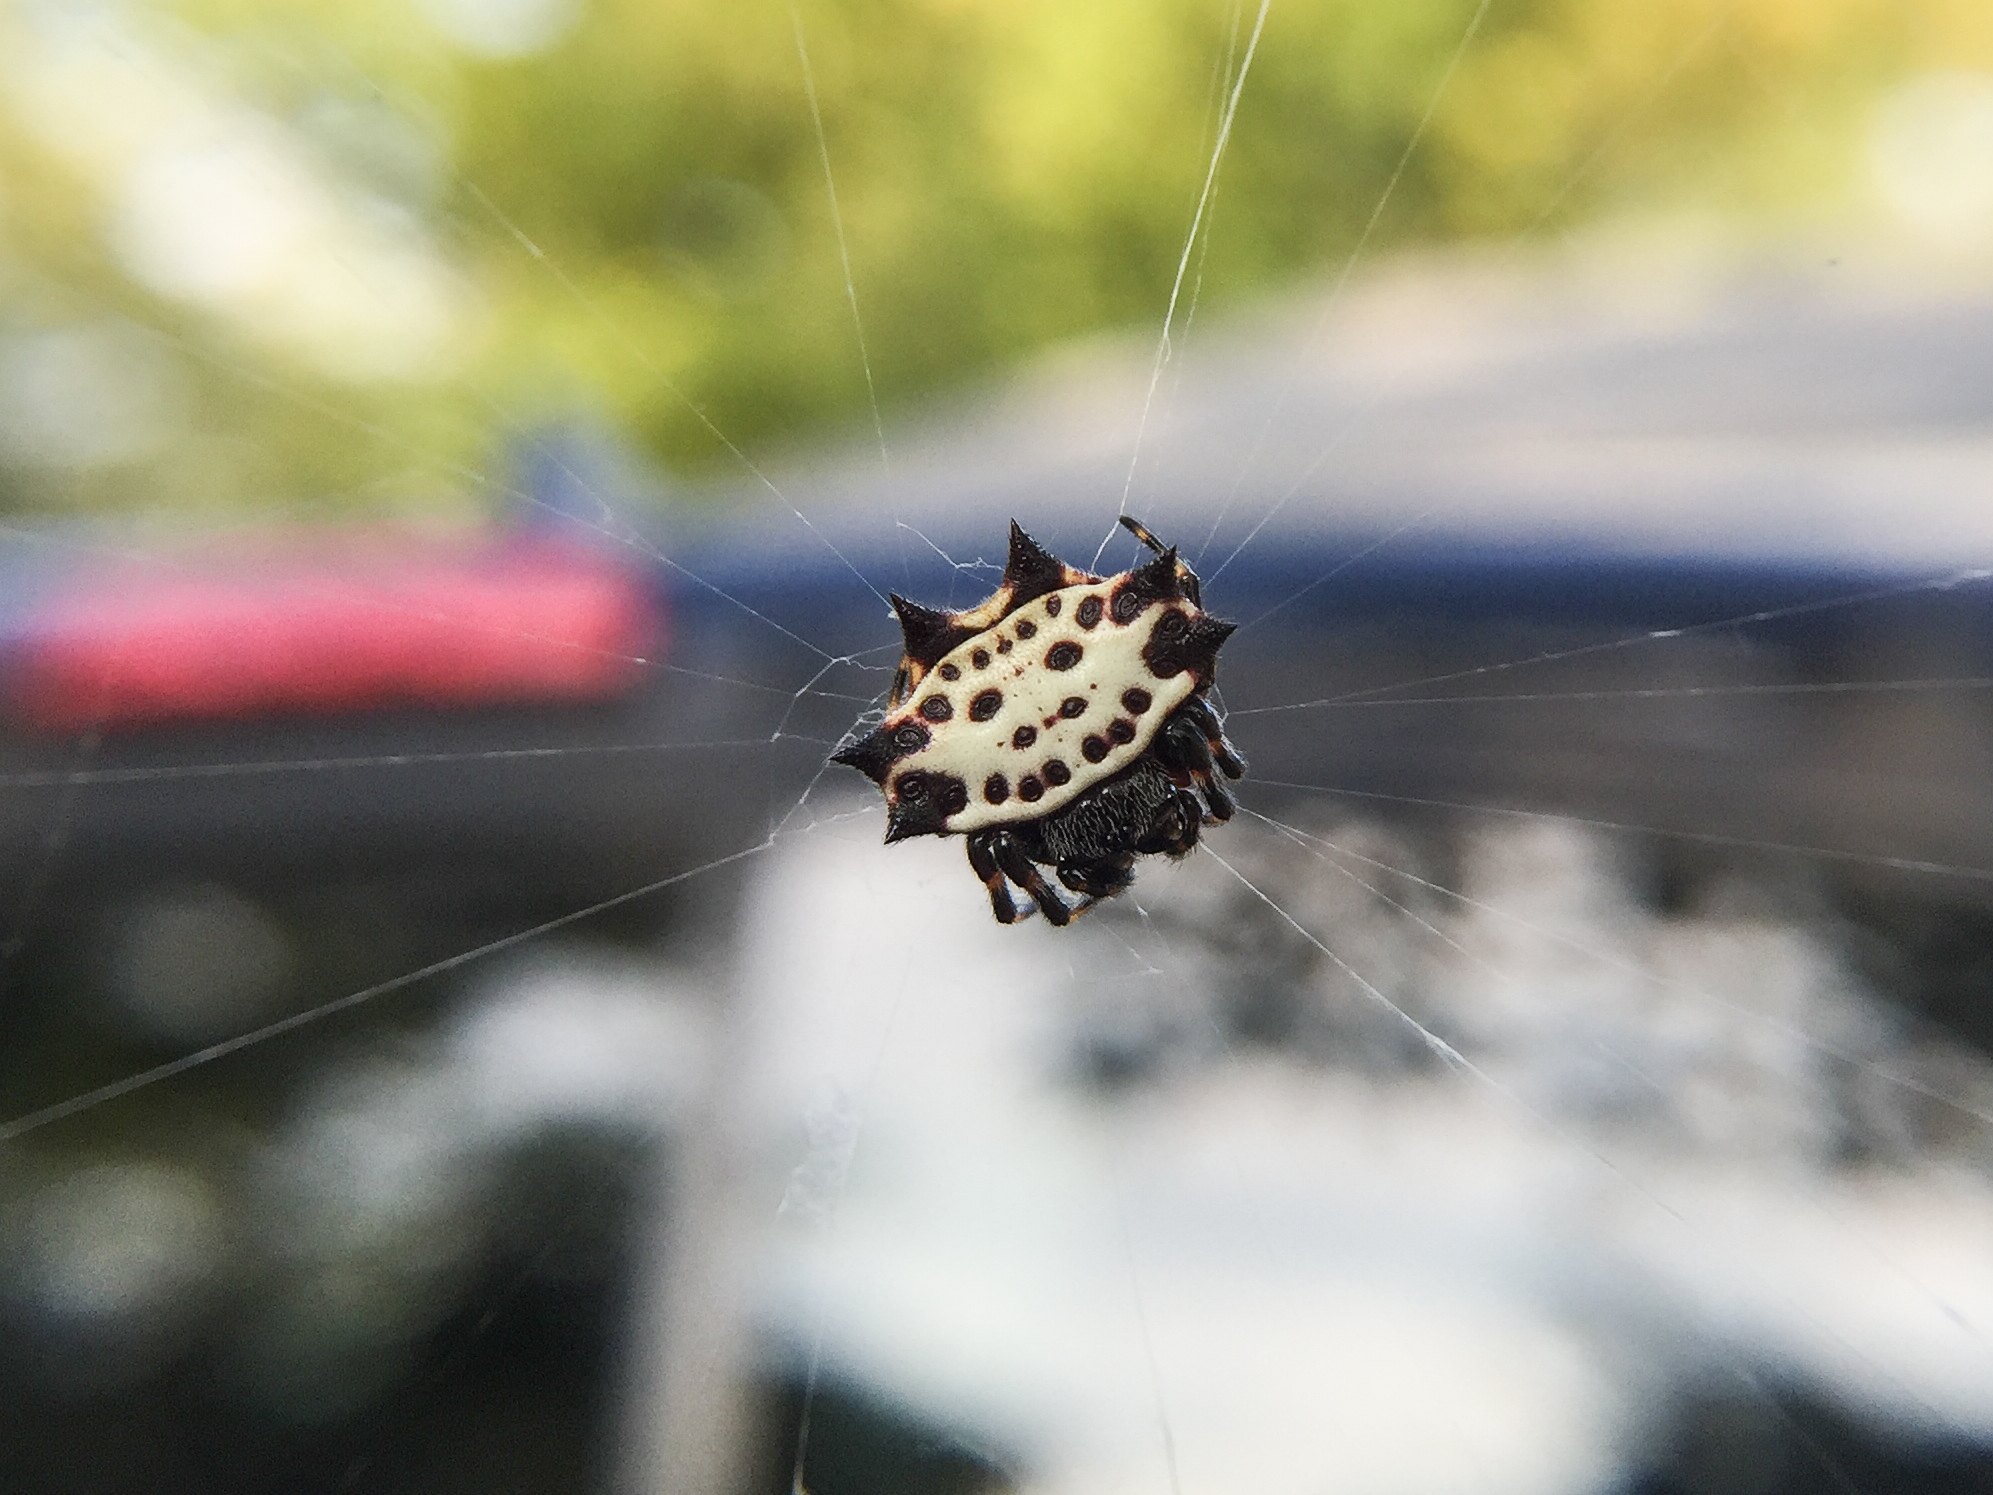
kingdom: Animalia
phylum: Arthropoda
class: Arachnida
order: Araneae
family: Araneidae
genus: Gasteracantha
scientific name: Gasteracantha cancriformis
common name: Orb weavers
